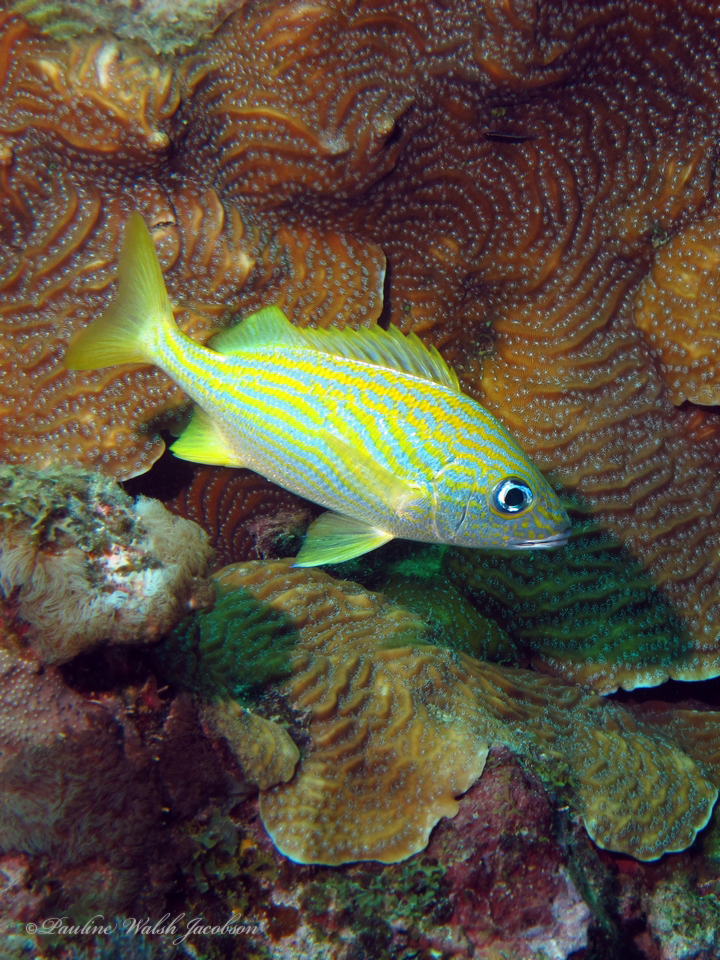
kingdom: Animalia
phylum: Chordata
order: Perciformes
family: Haemulidae
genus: Haemulon
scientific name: Haemulon flavolineatum
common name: French grunt
